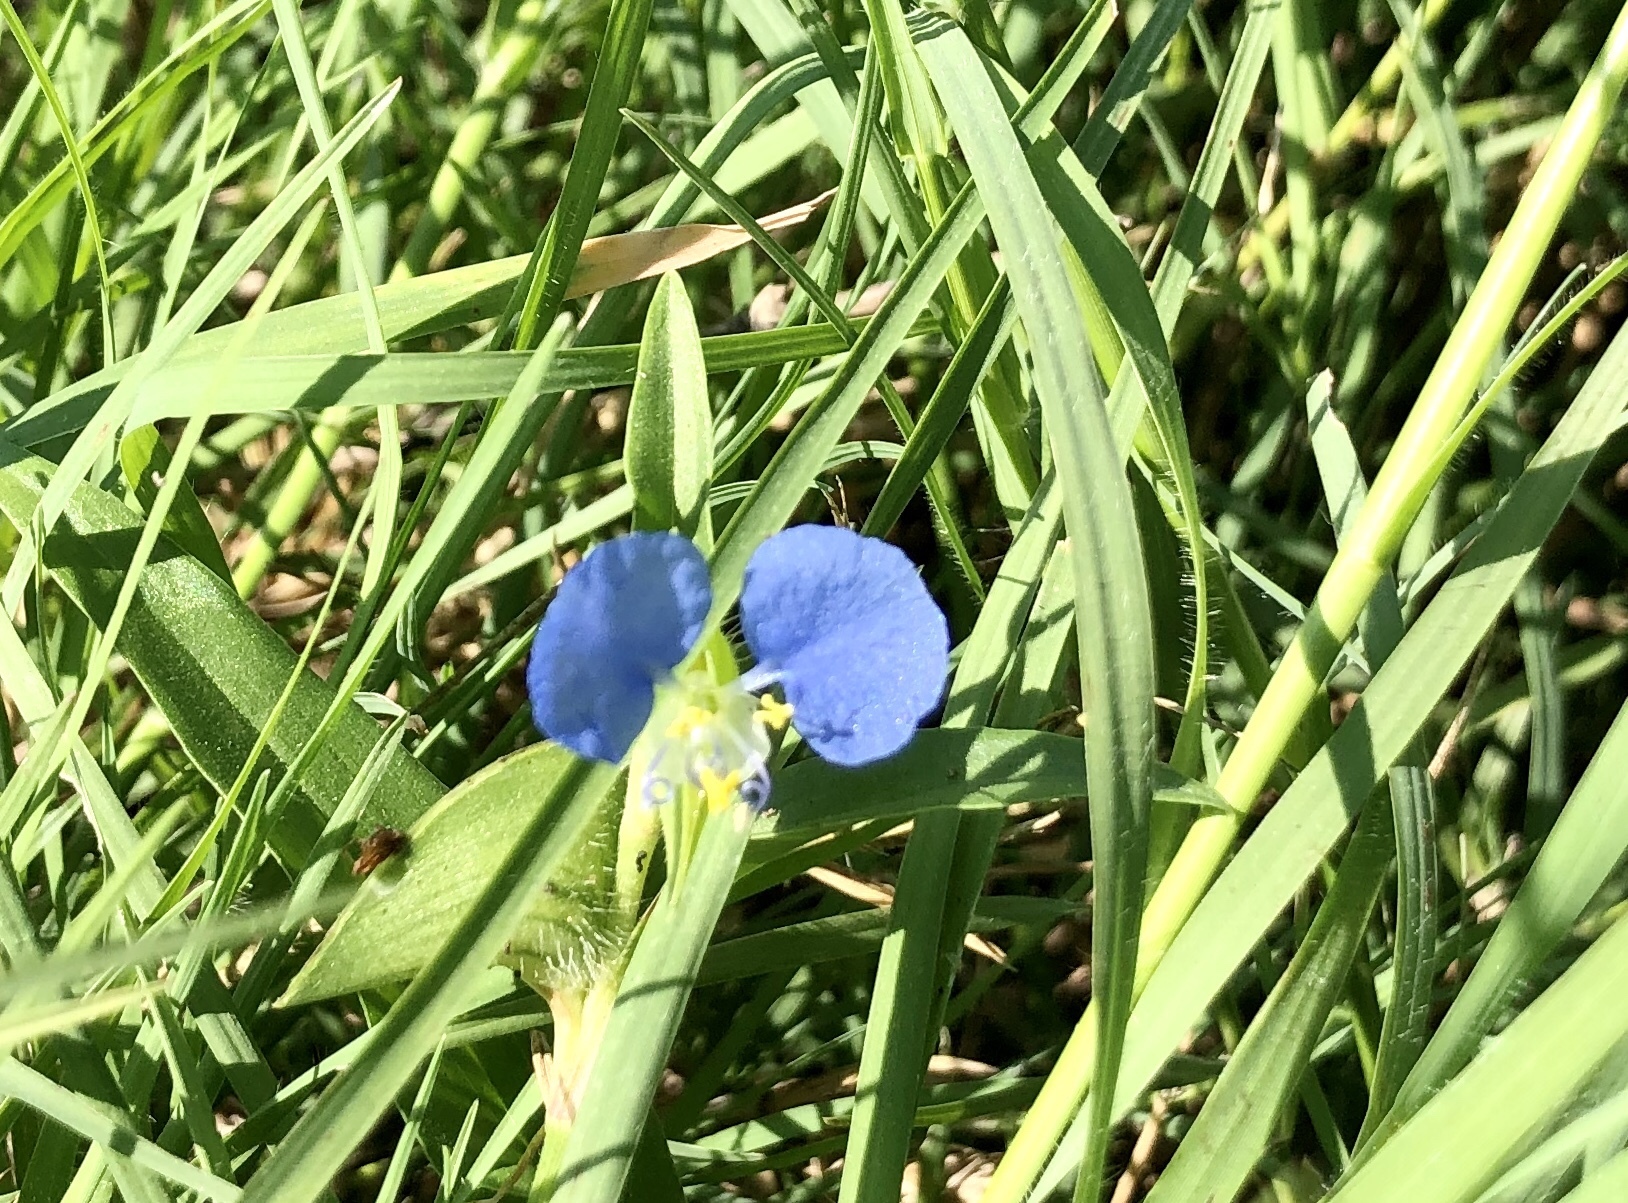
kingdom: Plantae
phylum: Tracheophyta
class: Liliopsida
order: Commelinales
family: Commelinaceae
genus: Commelina
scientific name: Commelina erecta
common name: Blousel blommetjie
